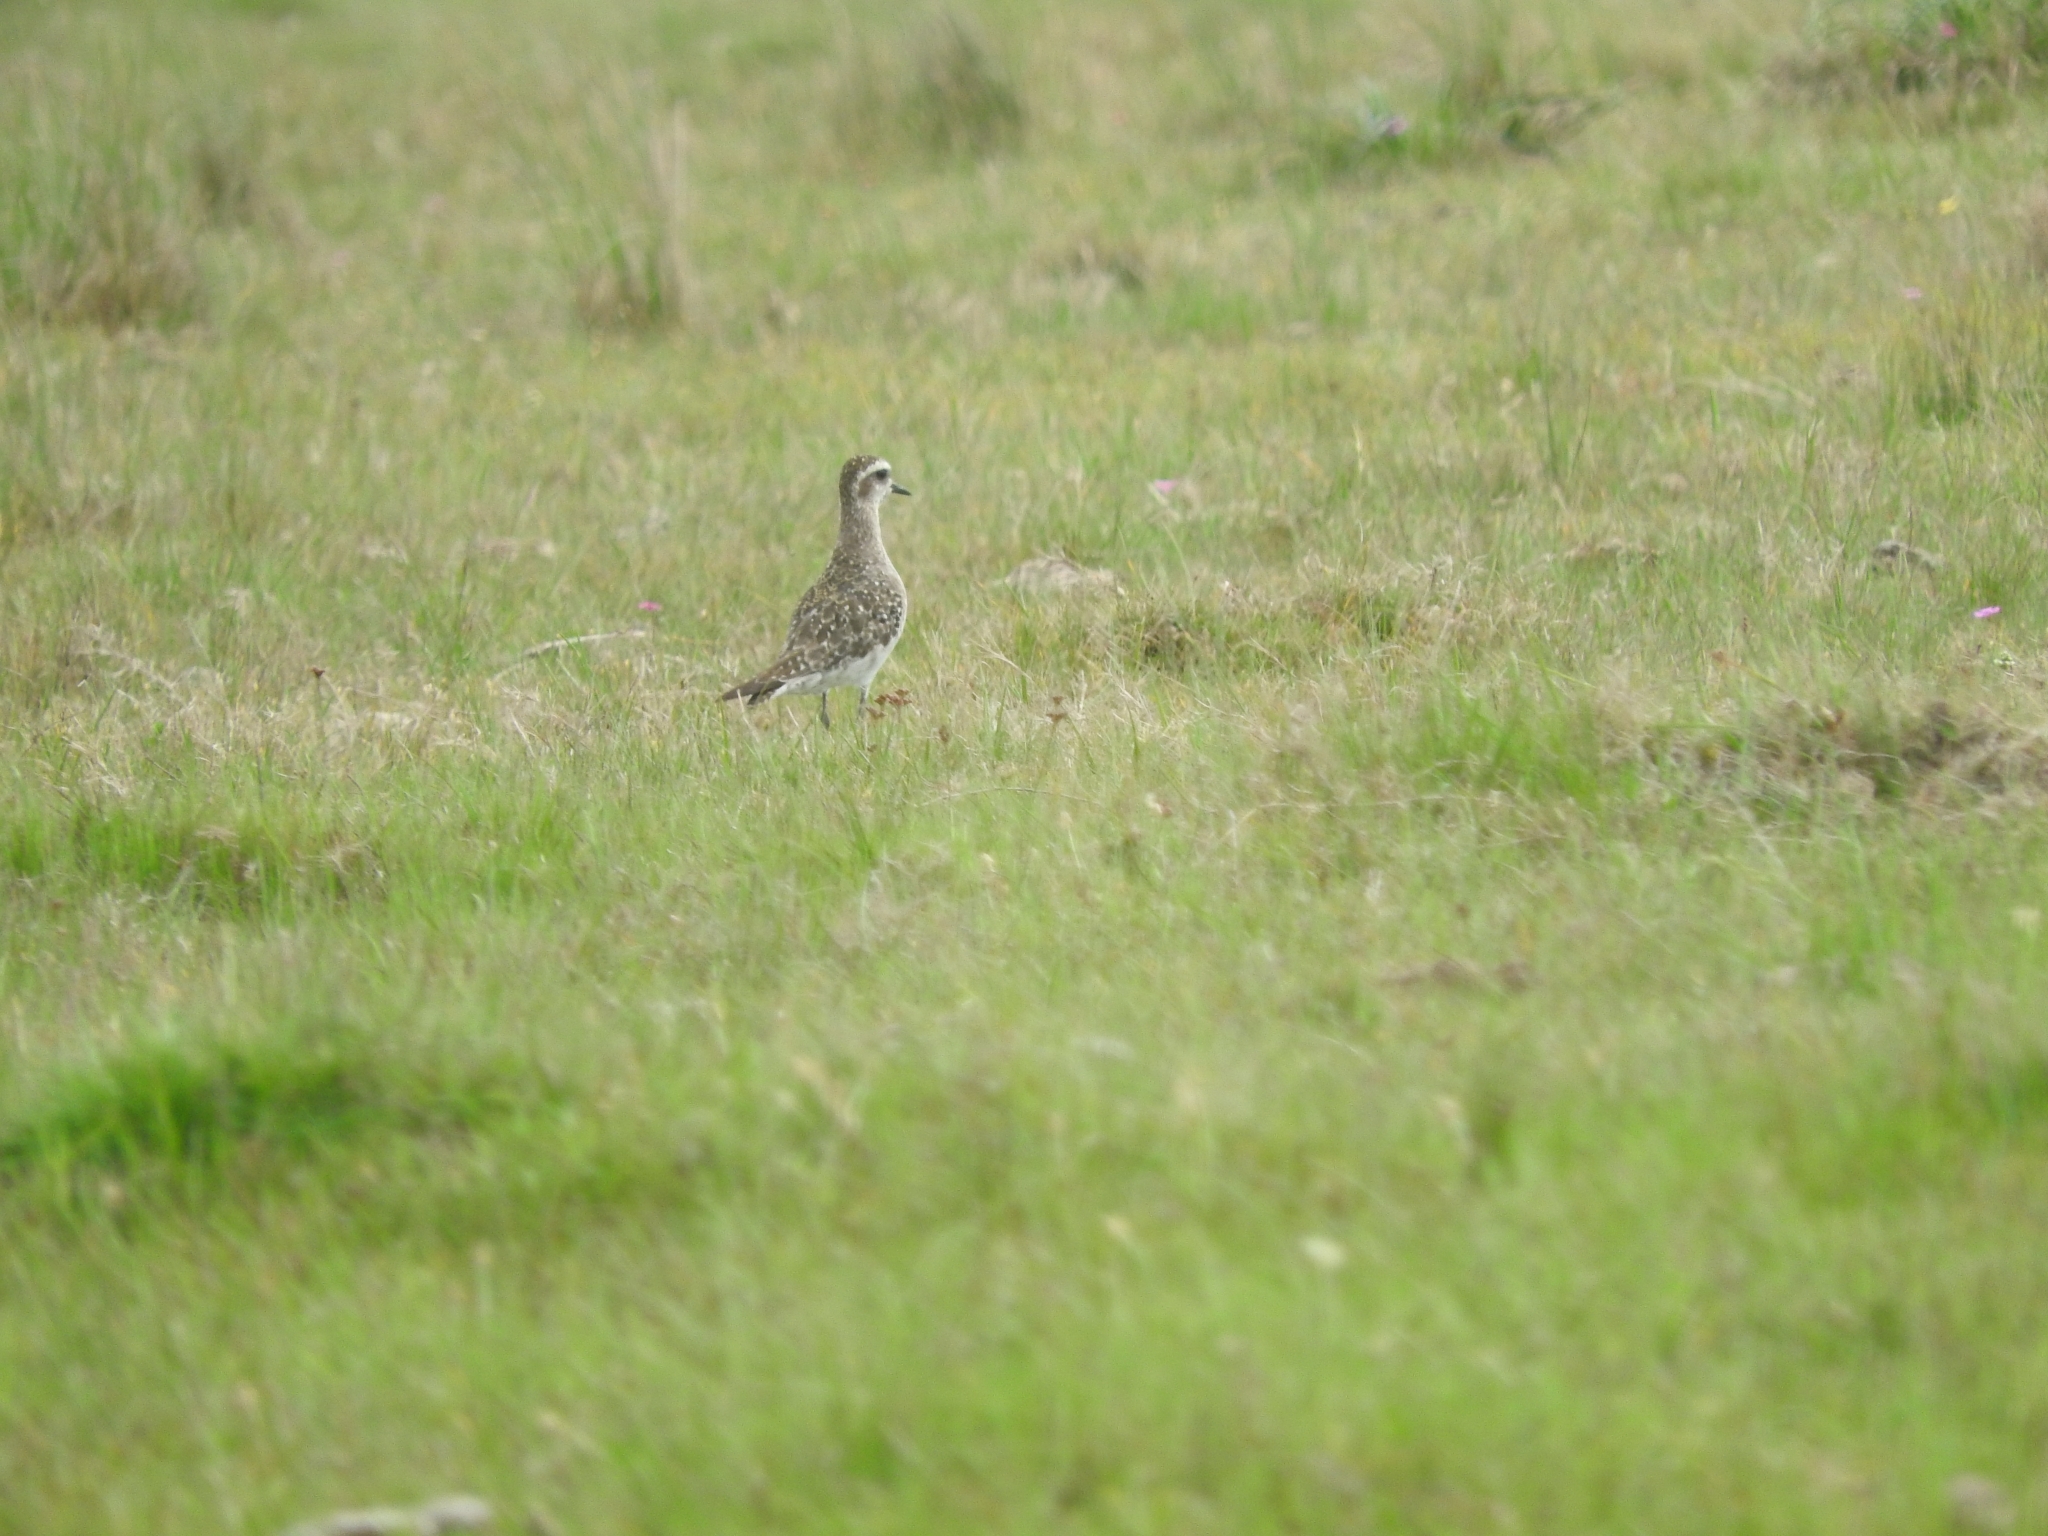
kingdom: Animalia
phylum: Chordata
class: Aves
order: Charadriiformes
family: Charadriidae
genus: Pluvialis
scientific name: Pluvialis dominica
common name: American golden plover
